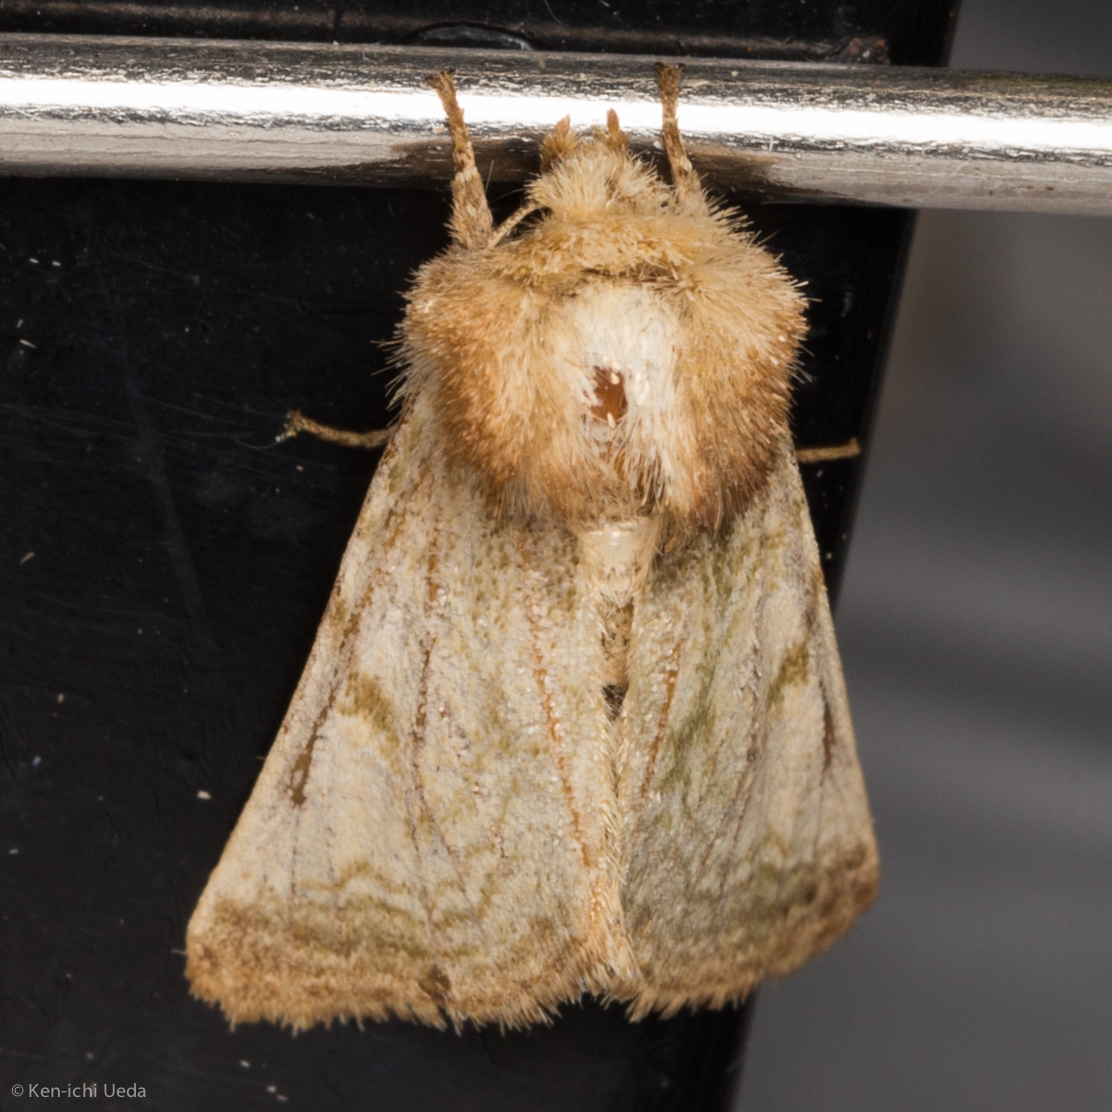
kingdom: Animalia
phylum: Arthropoda
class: Insecta
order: Lepidoptera
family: Noctuidae
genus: Nocloa
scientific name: Nocloa rivulosa
